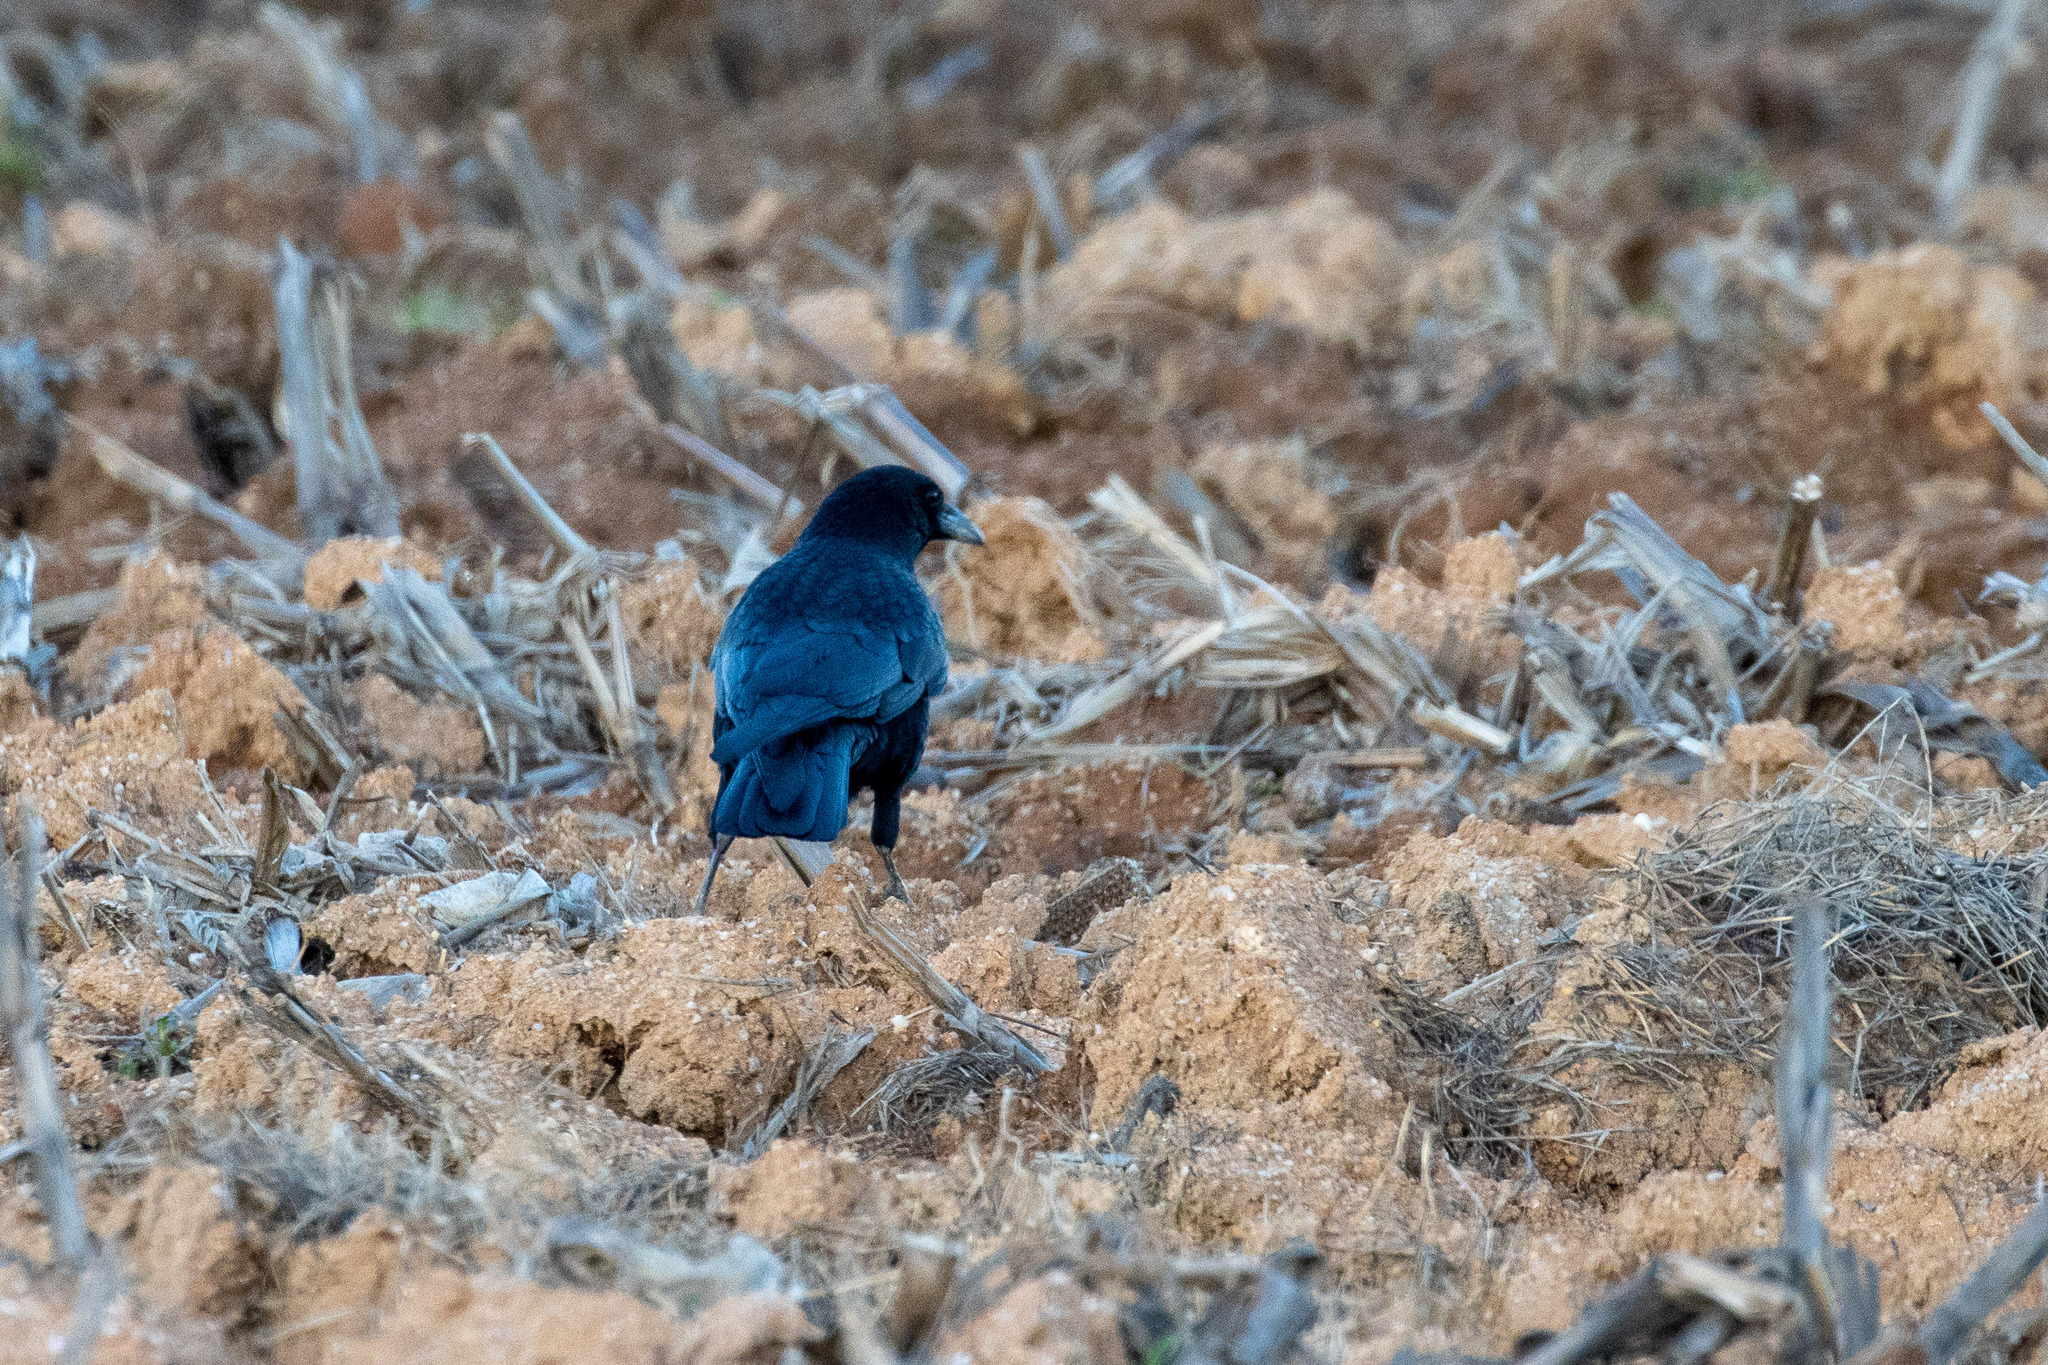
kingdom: Animalia
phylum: Chordata
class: Aves
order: Passeriformes
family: Corvidae
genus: Corvus
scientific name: Corvus corone
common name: Carrion crow
